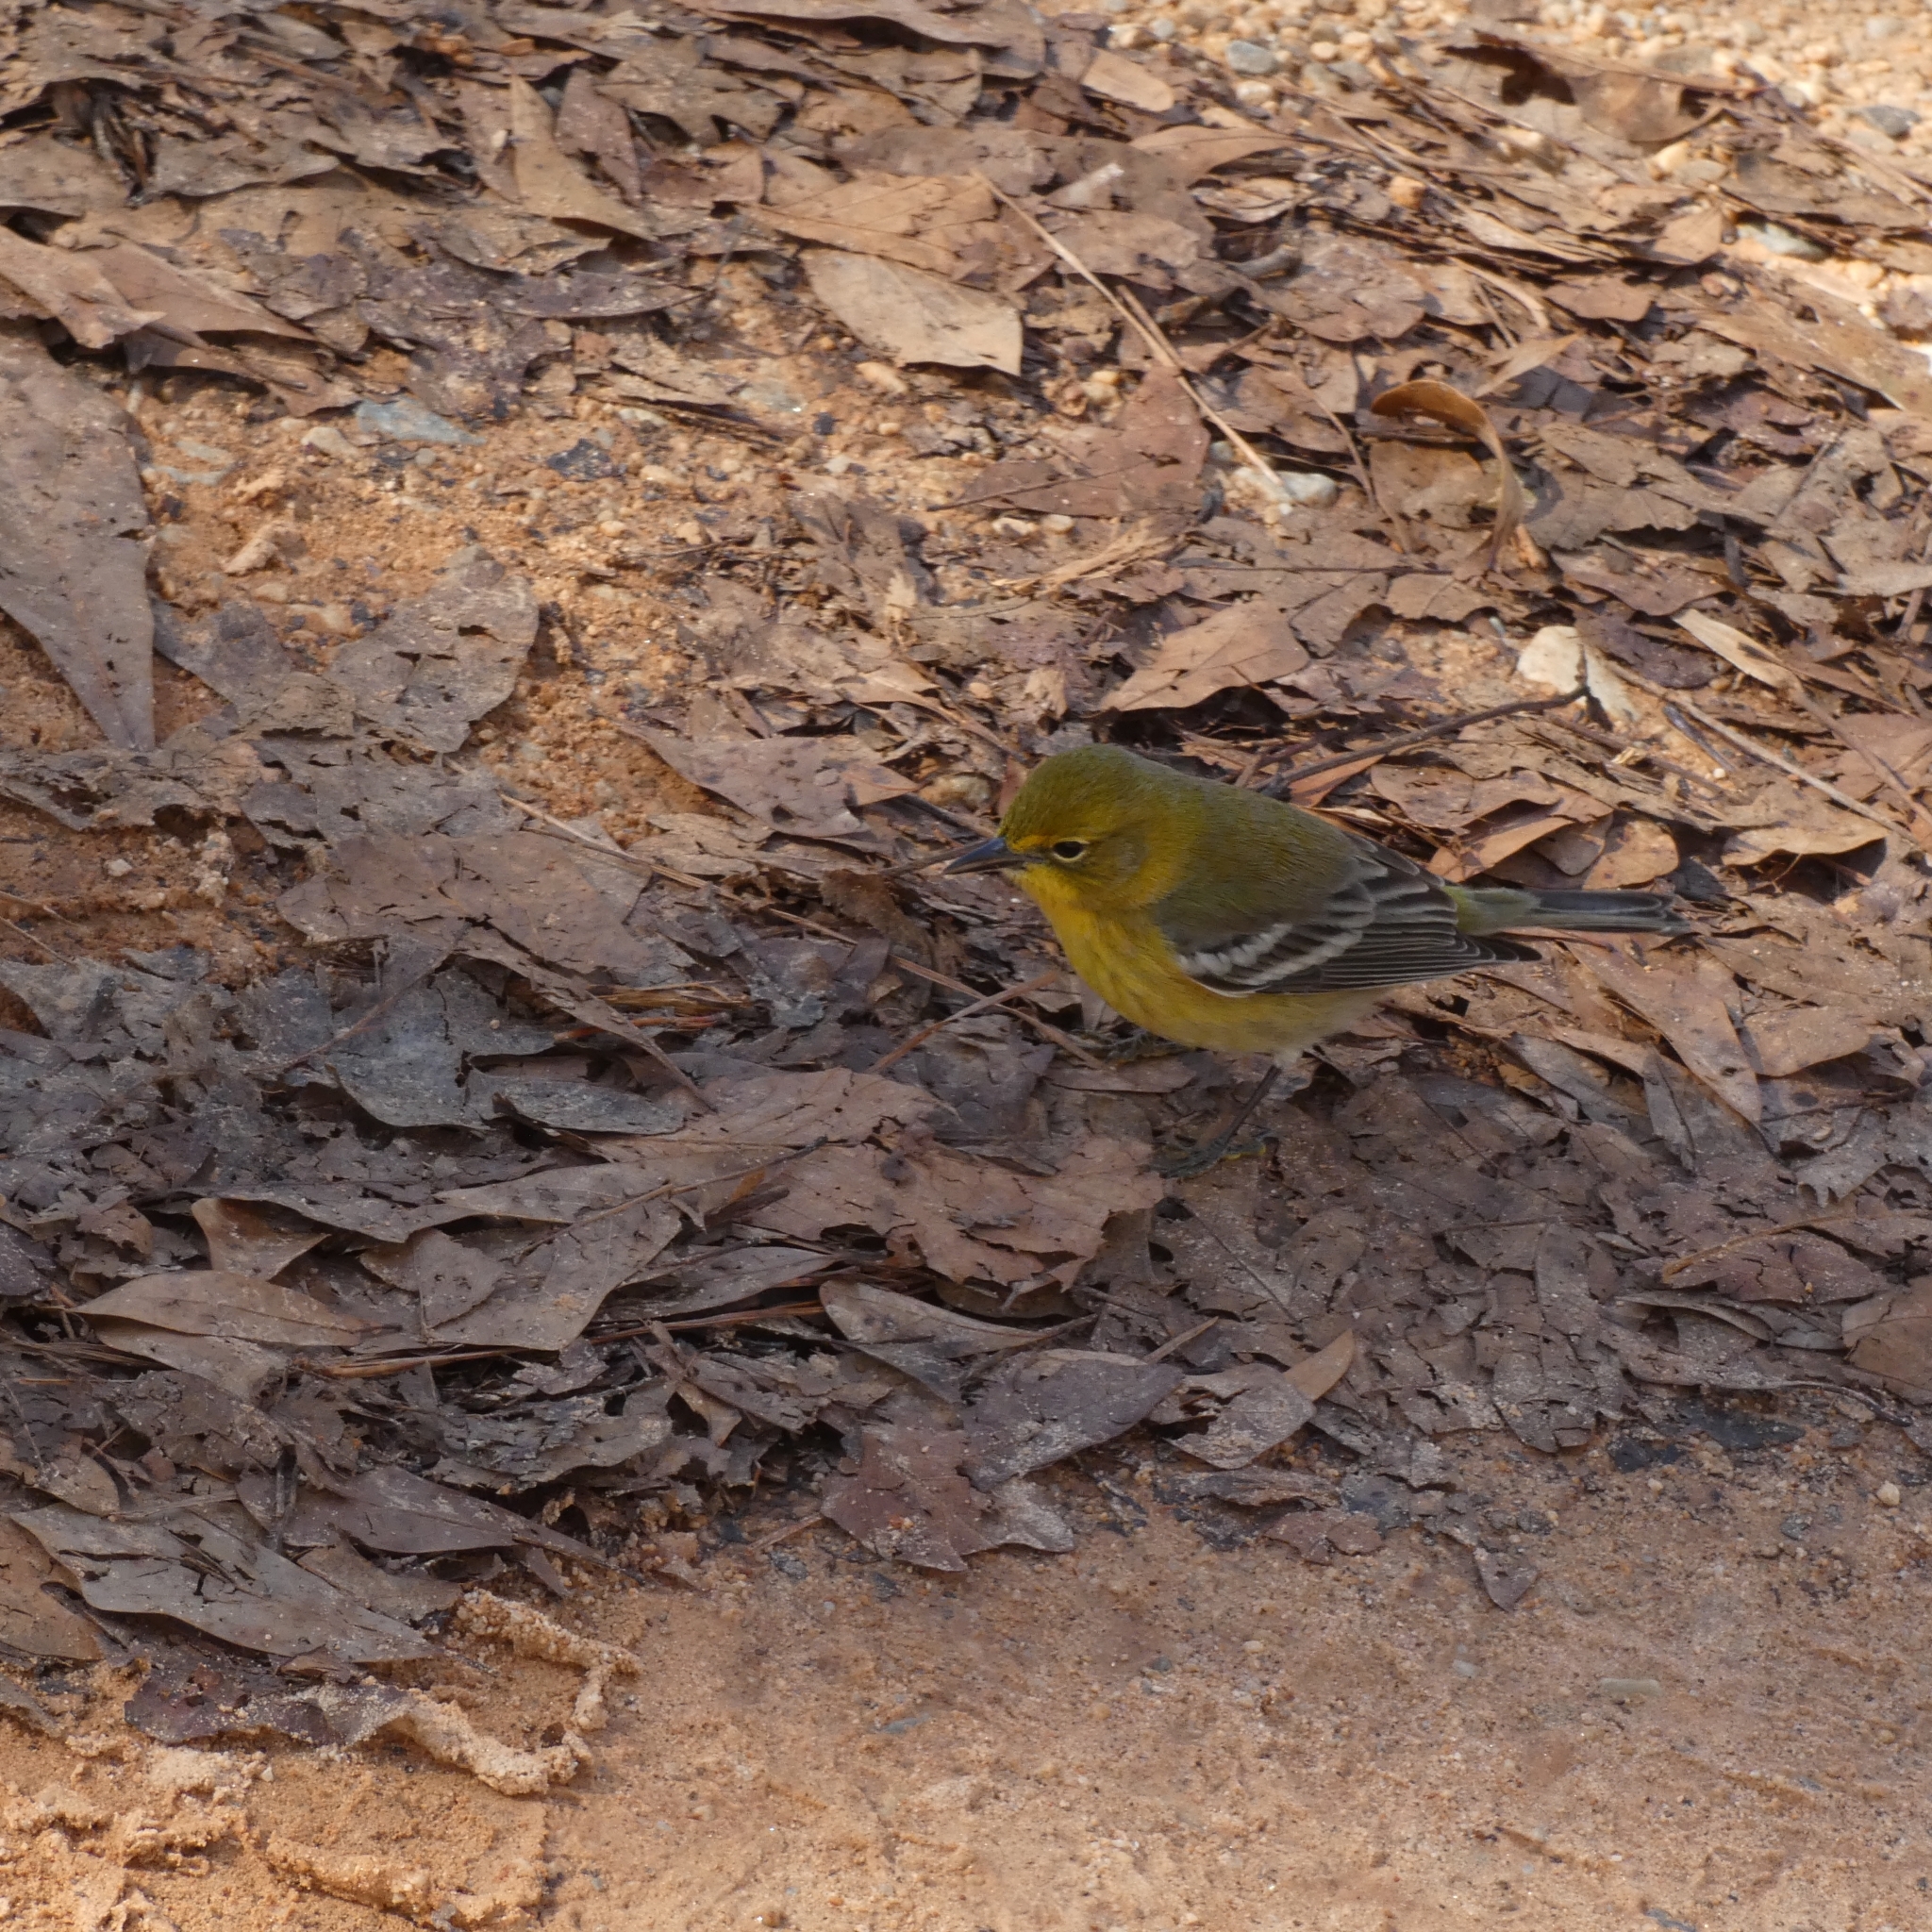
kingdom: Animalia
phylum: Chordata
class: Aves
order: Passeriformes
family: Parulidae
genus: Setophaga
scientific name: Setophaga pinus
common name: Pine warbler
